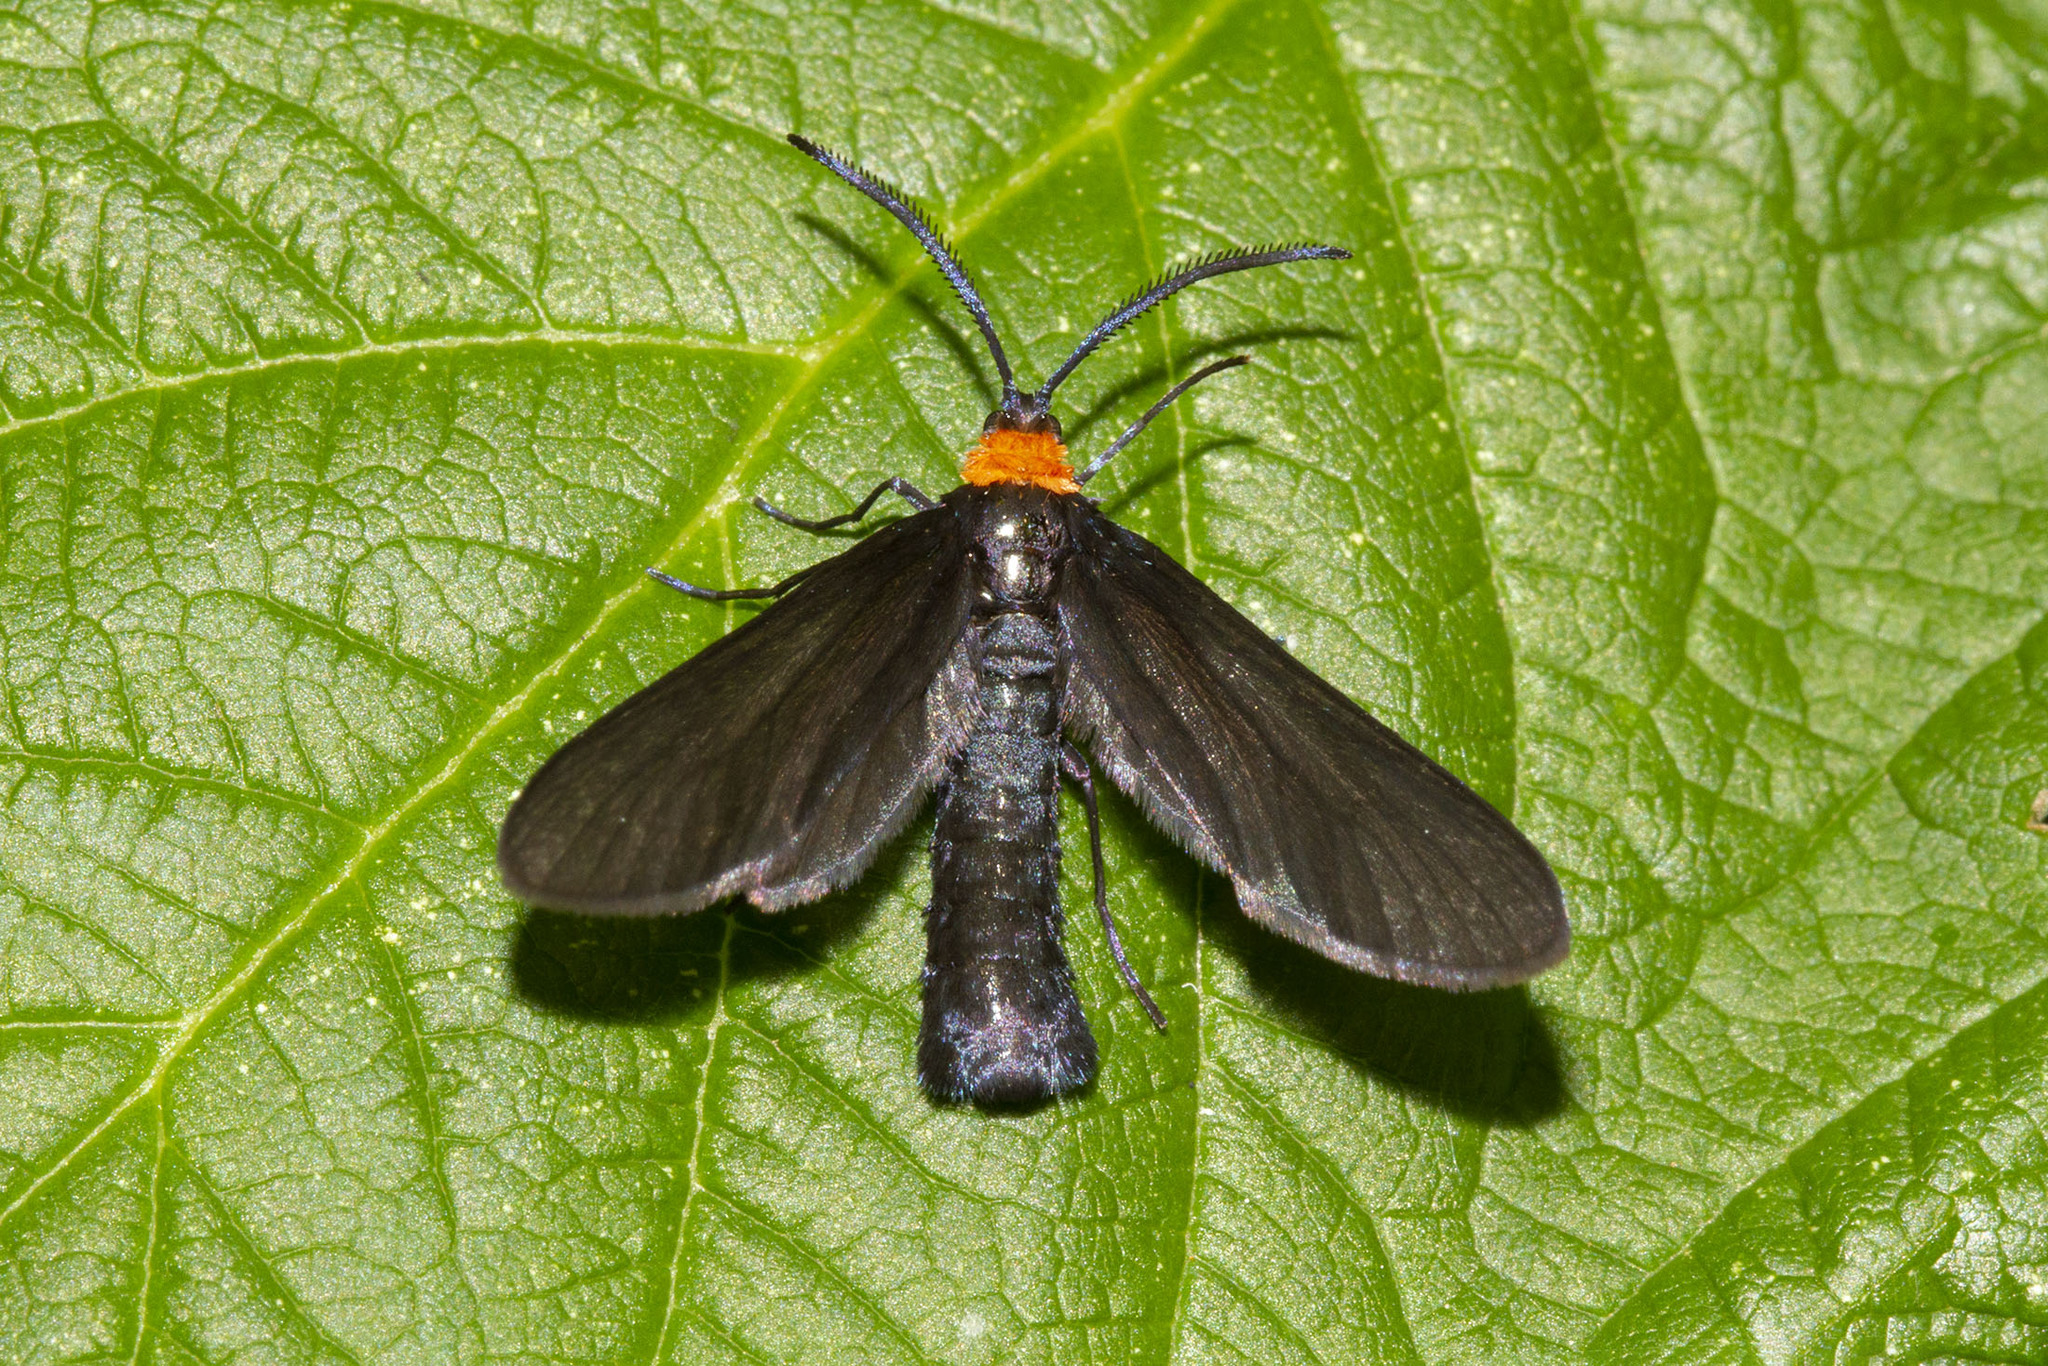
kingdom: Animalia
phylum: Arthropoda
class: Insecta
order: Lepidoptera
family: Zygaenidae
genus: Harrisina
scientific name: Harrisina americana
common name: Grapeleaf skeletonizer moth
